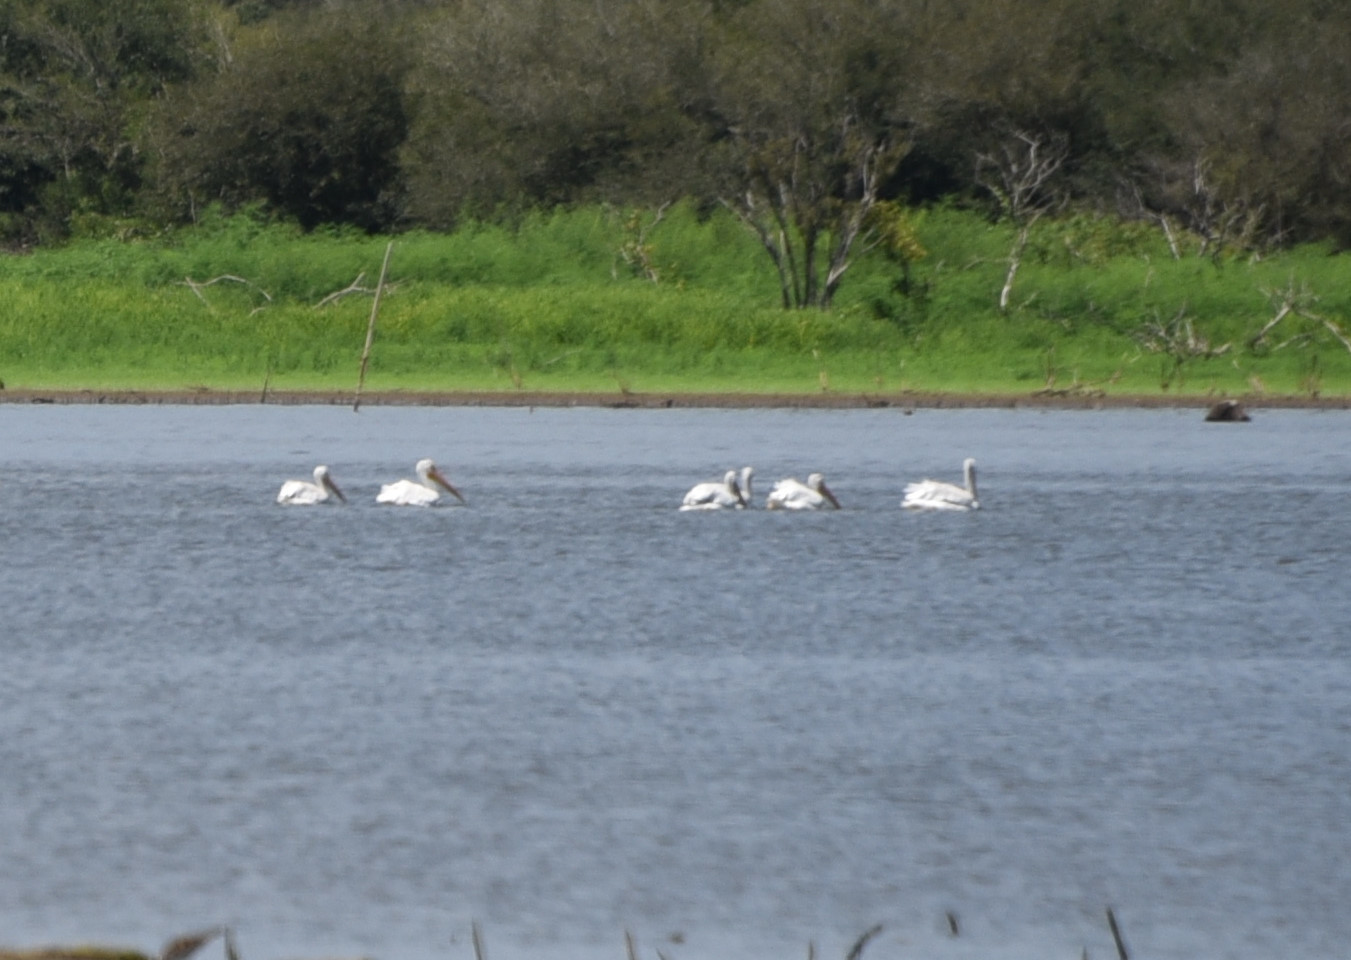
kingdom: Animalia
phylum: Chordata
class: Aves
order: Pelecaniformes
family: Pelecanidae
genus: Pelecanus
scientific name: Pelecanus erythrorhynchos
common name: American white pelican
